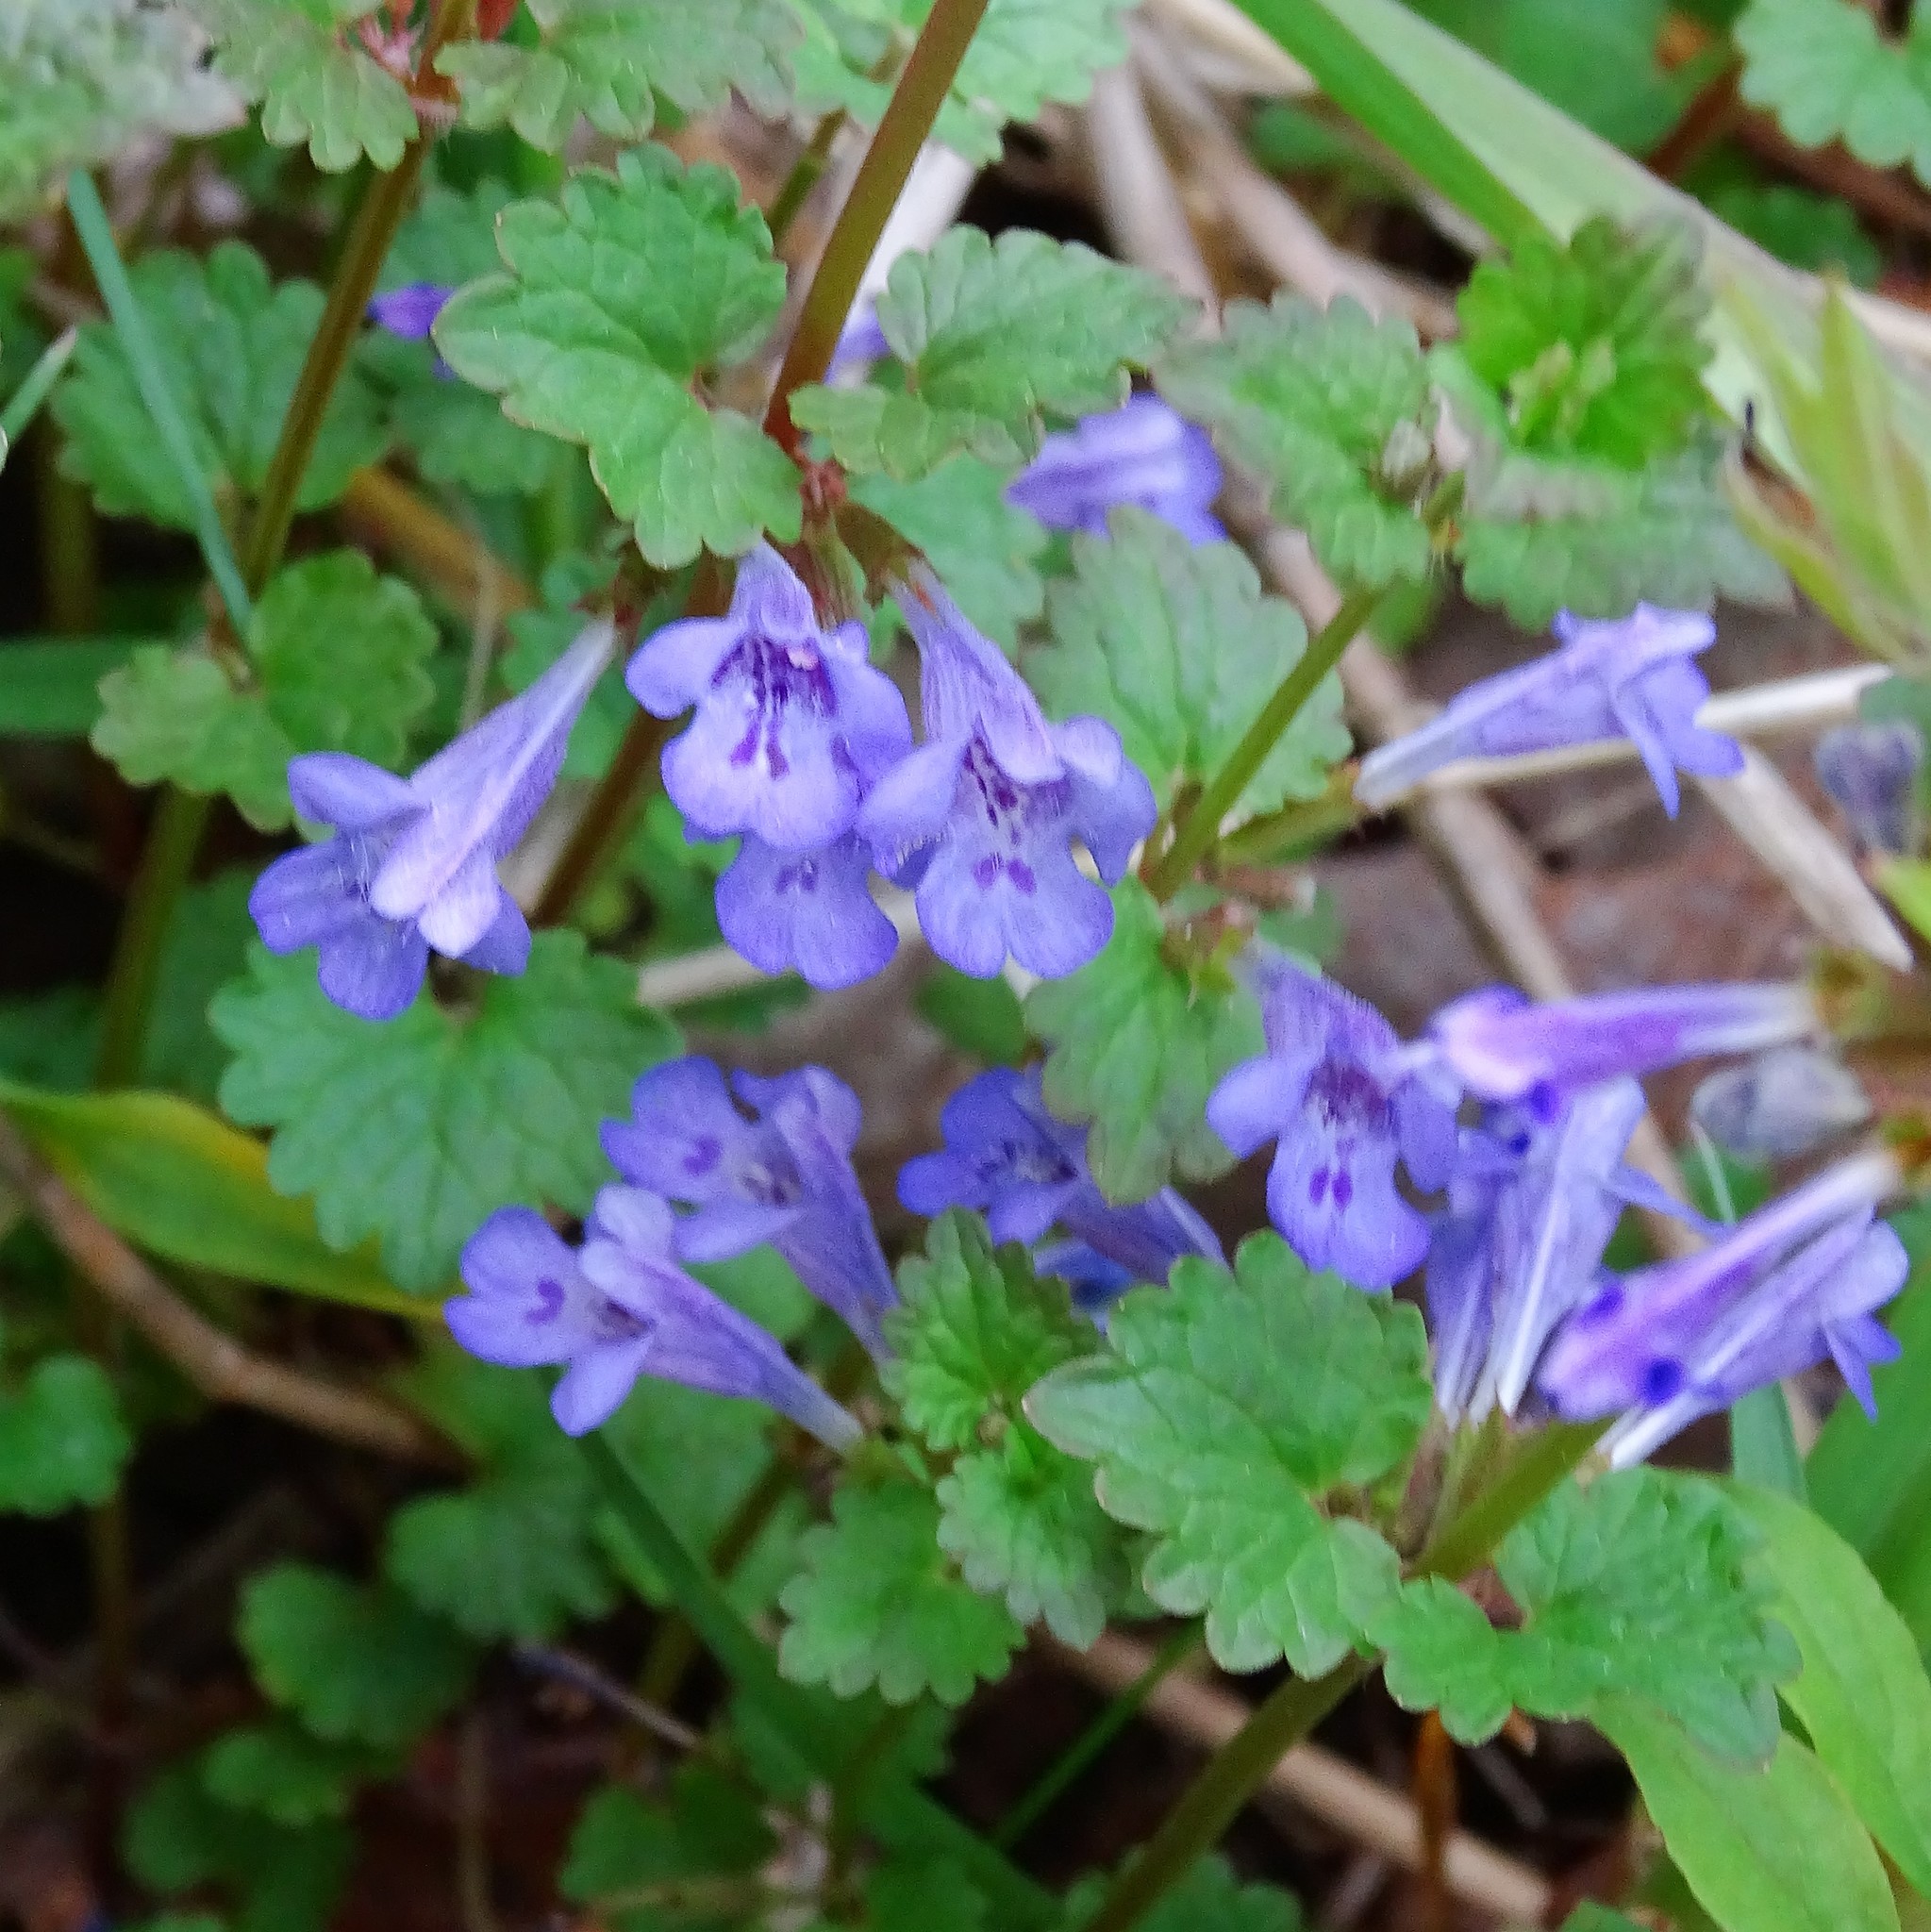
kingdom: Plantae
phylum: Tracheophyta
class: Magnoliopsida
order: Lamiales
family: Lamiaceae
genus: Glechoma
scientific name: Glechoma hederacea
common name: Ground ivy
